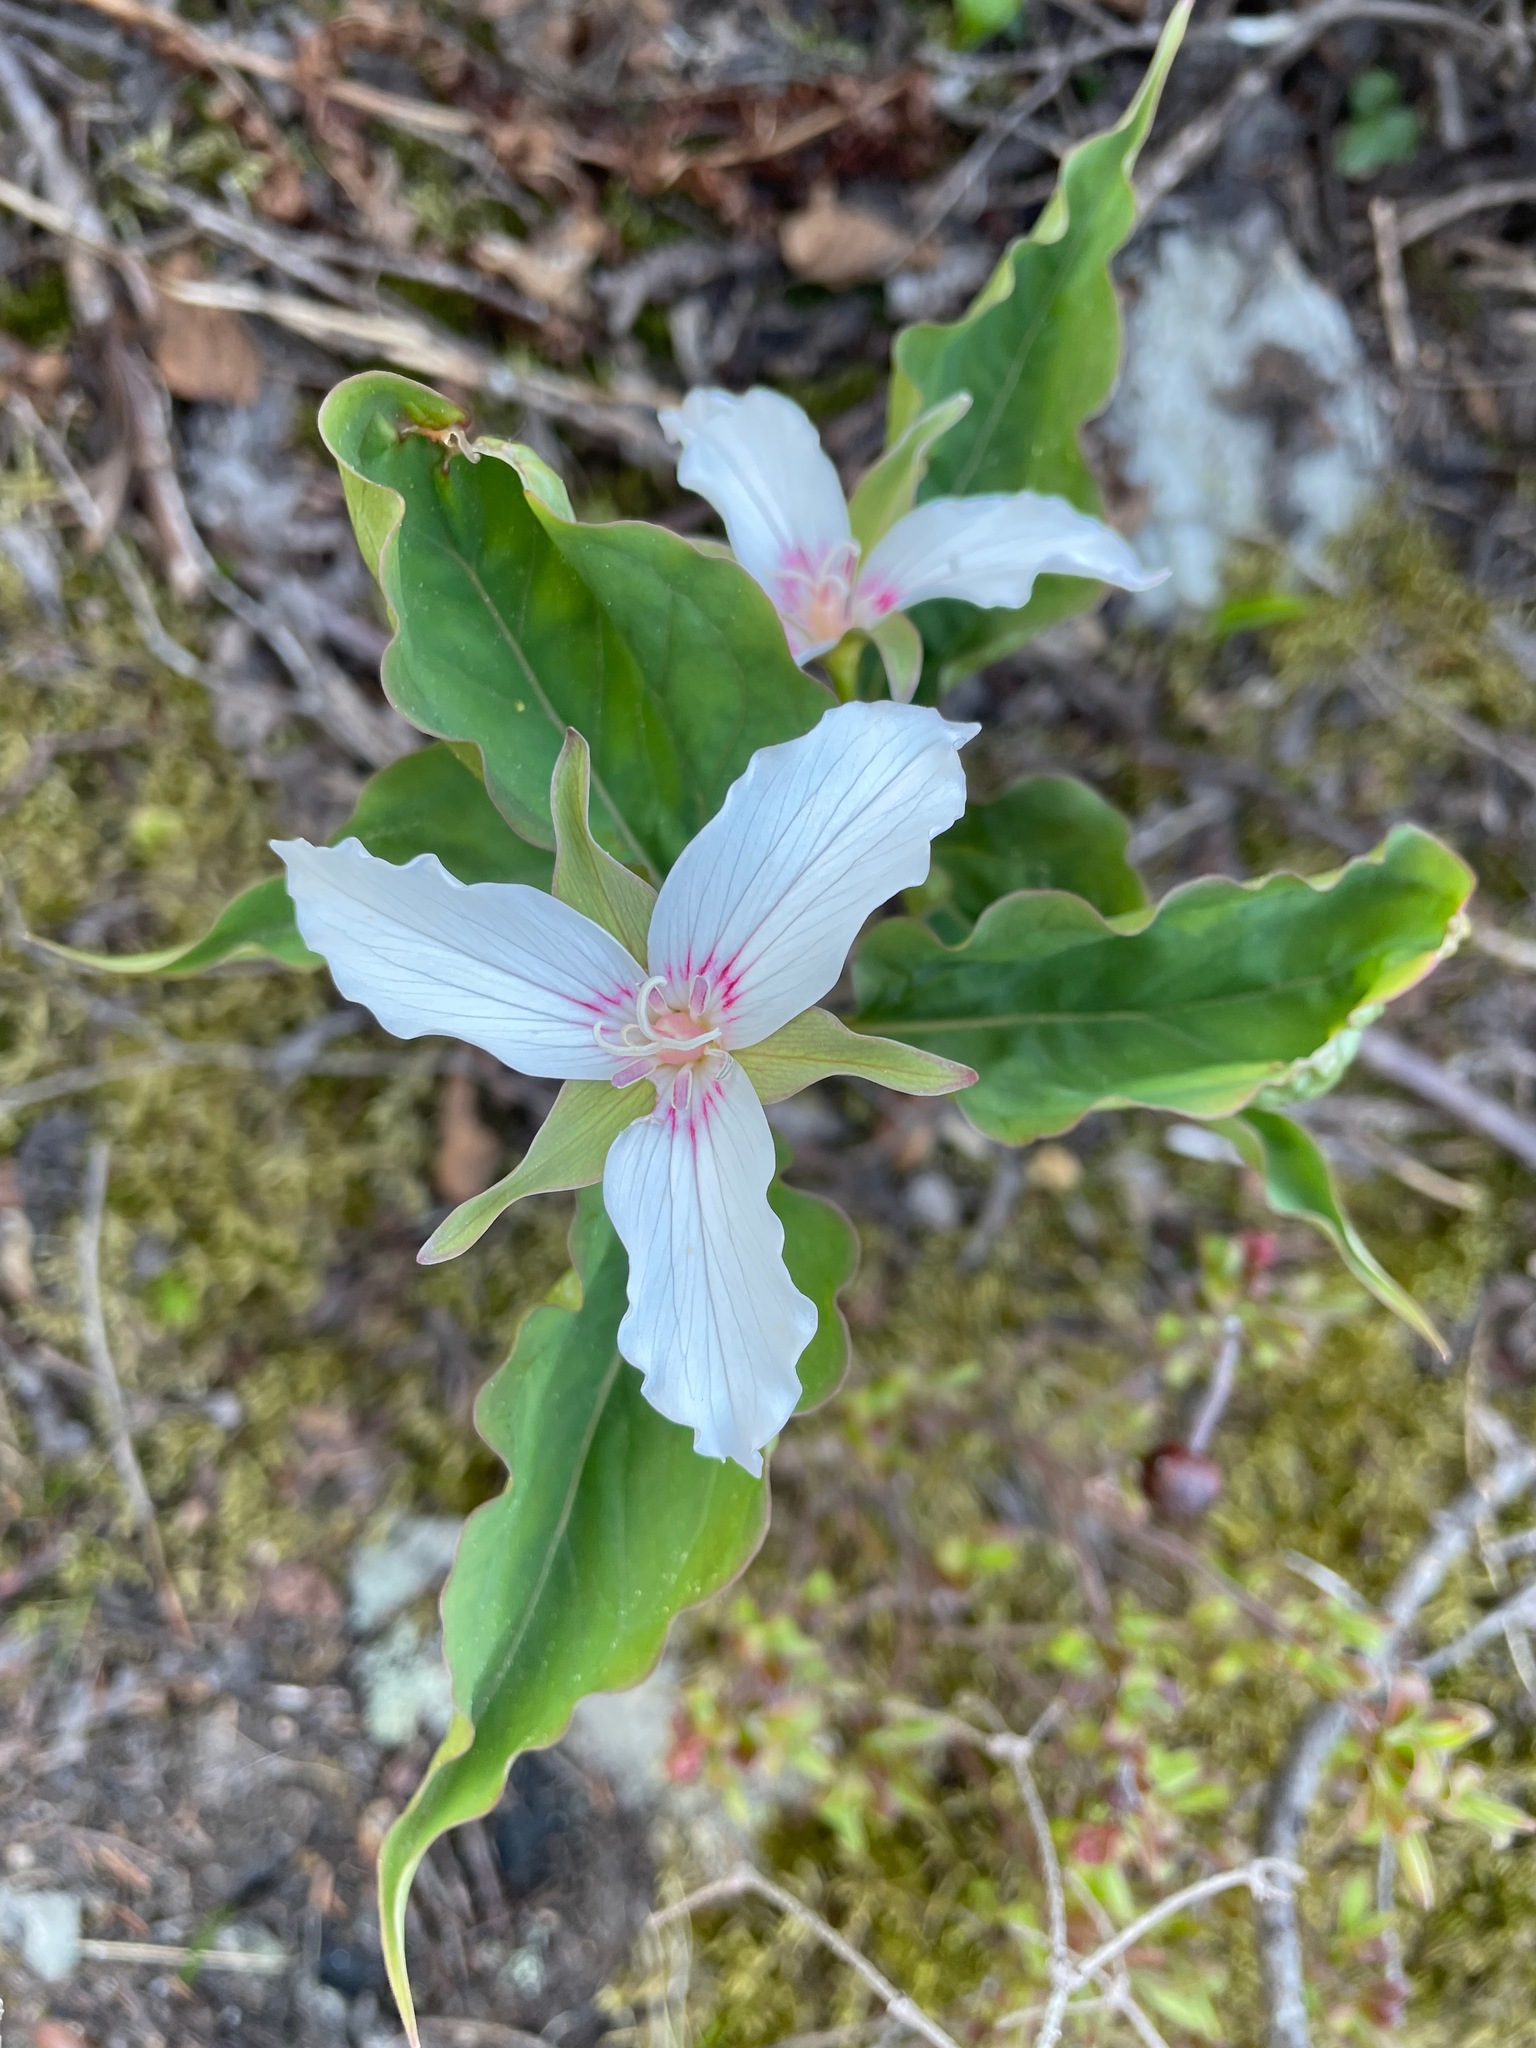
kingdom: Plantae
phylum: Tracheophyta
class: Liliopsida
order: Liliales
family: Melanthiaceae
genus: Trillium
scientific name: Trillium undulatum
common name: Paint trillium
